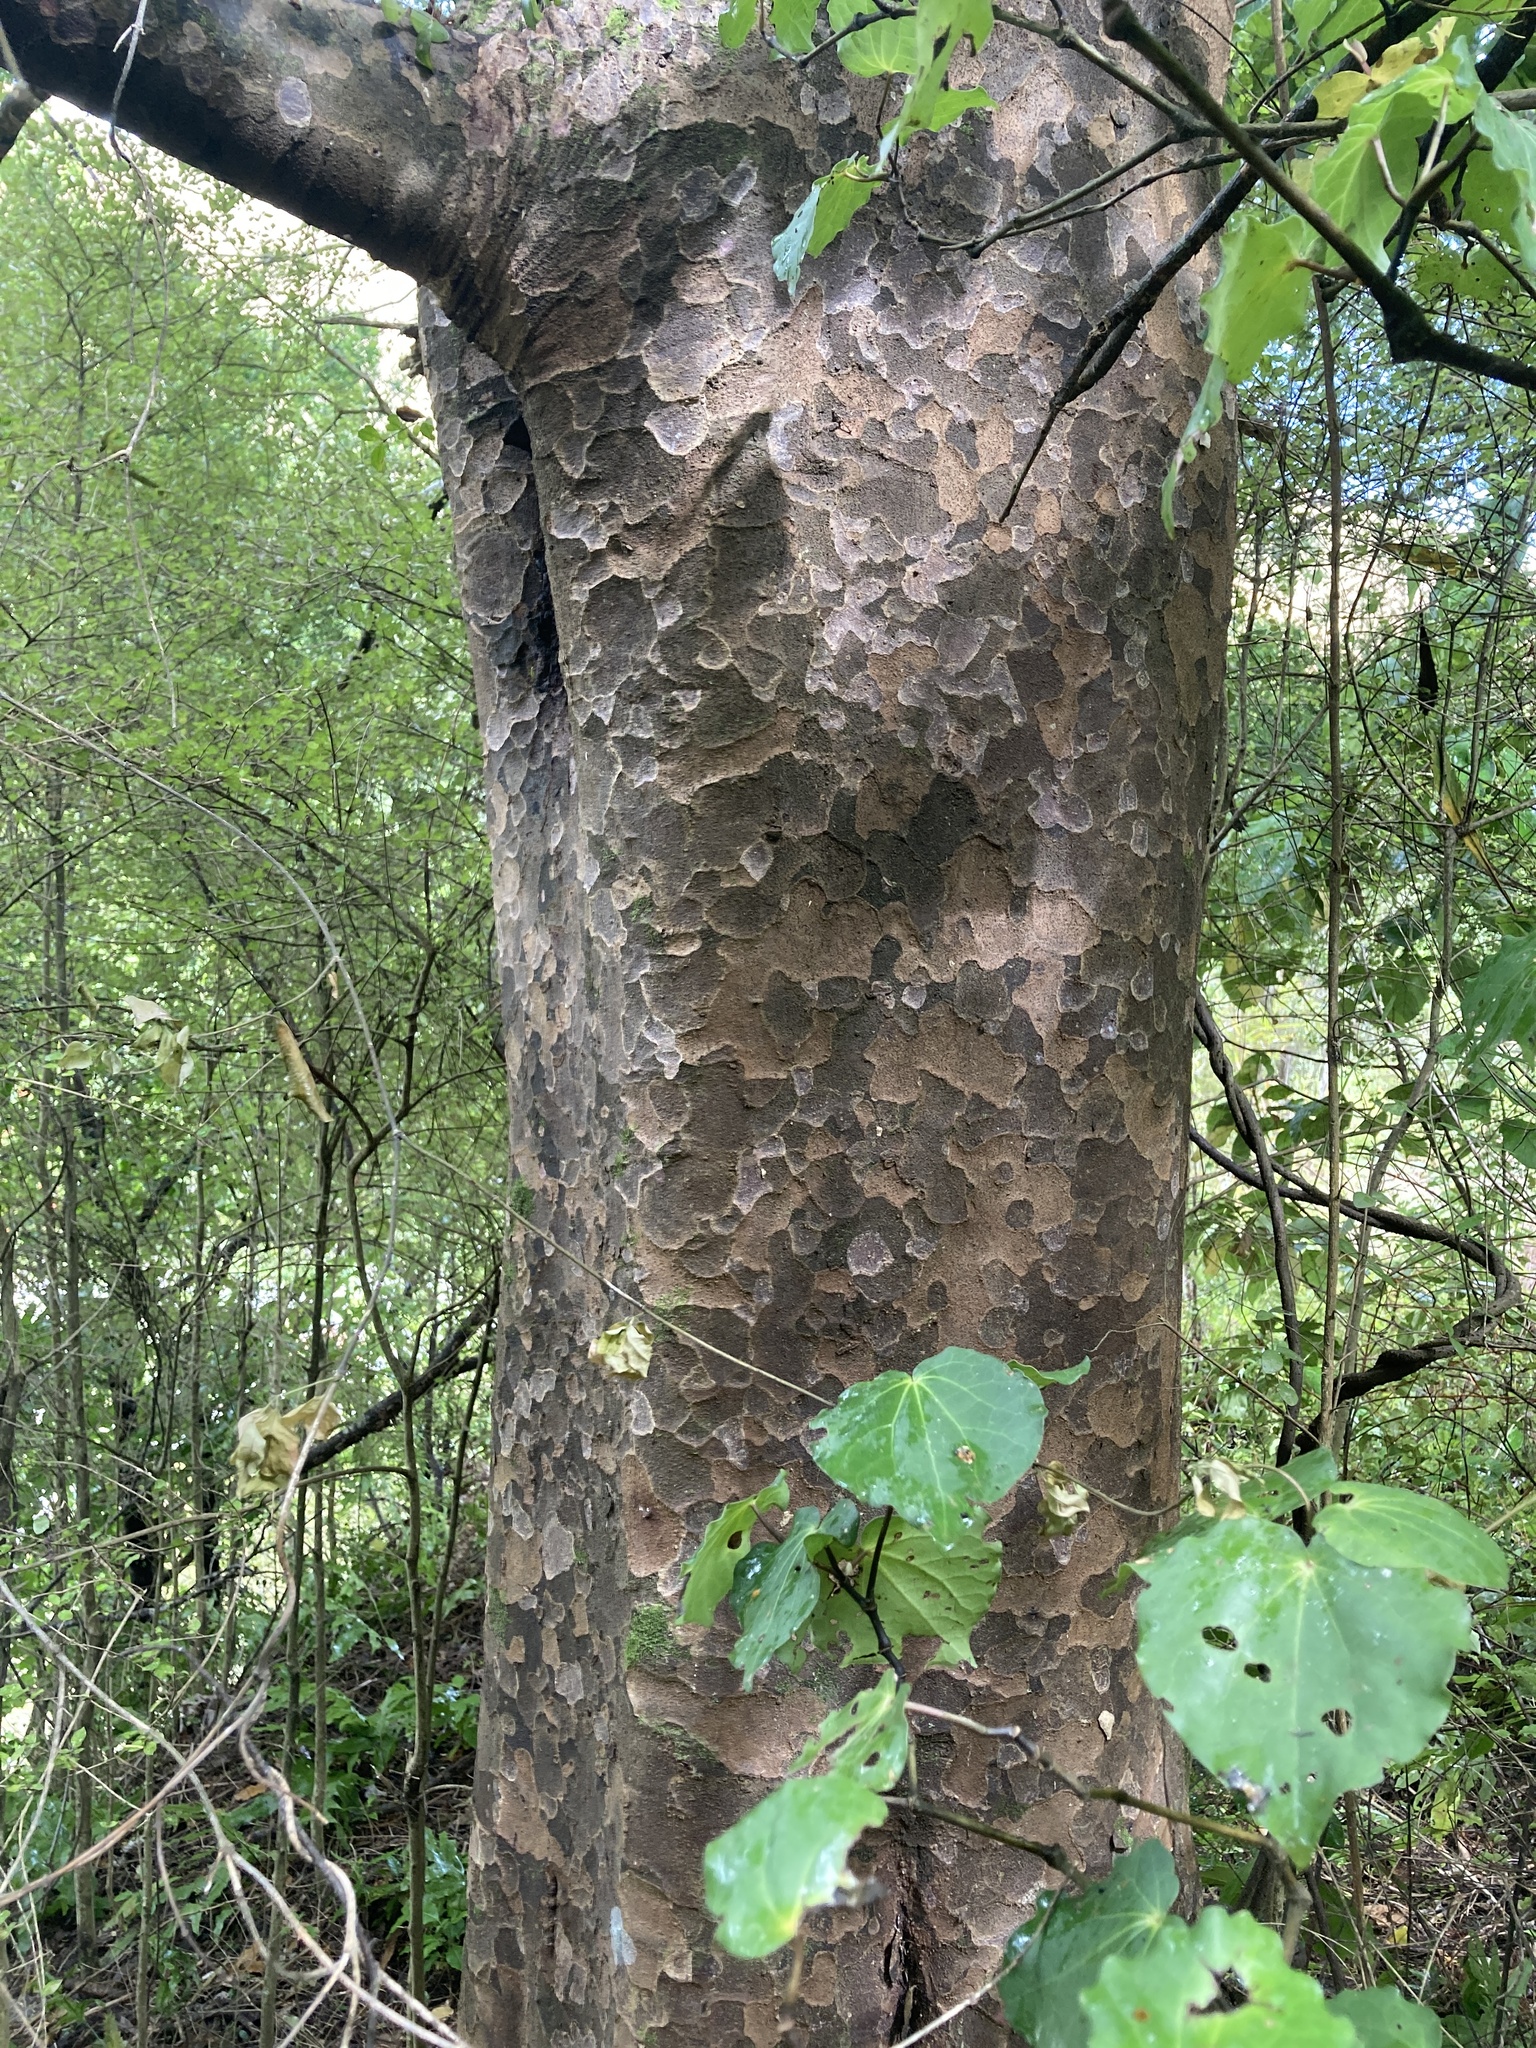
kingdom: Plantae
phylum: Tracheophyta
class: Pinopsida
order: Pinales
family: Podocarpaceae
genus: Prumnopitys
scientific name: Prumnopitys taxifolia
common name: Matai
